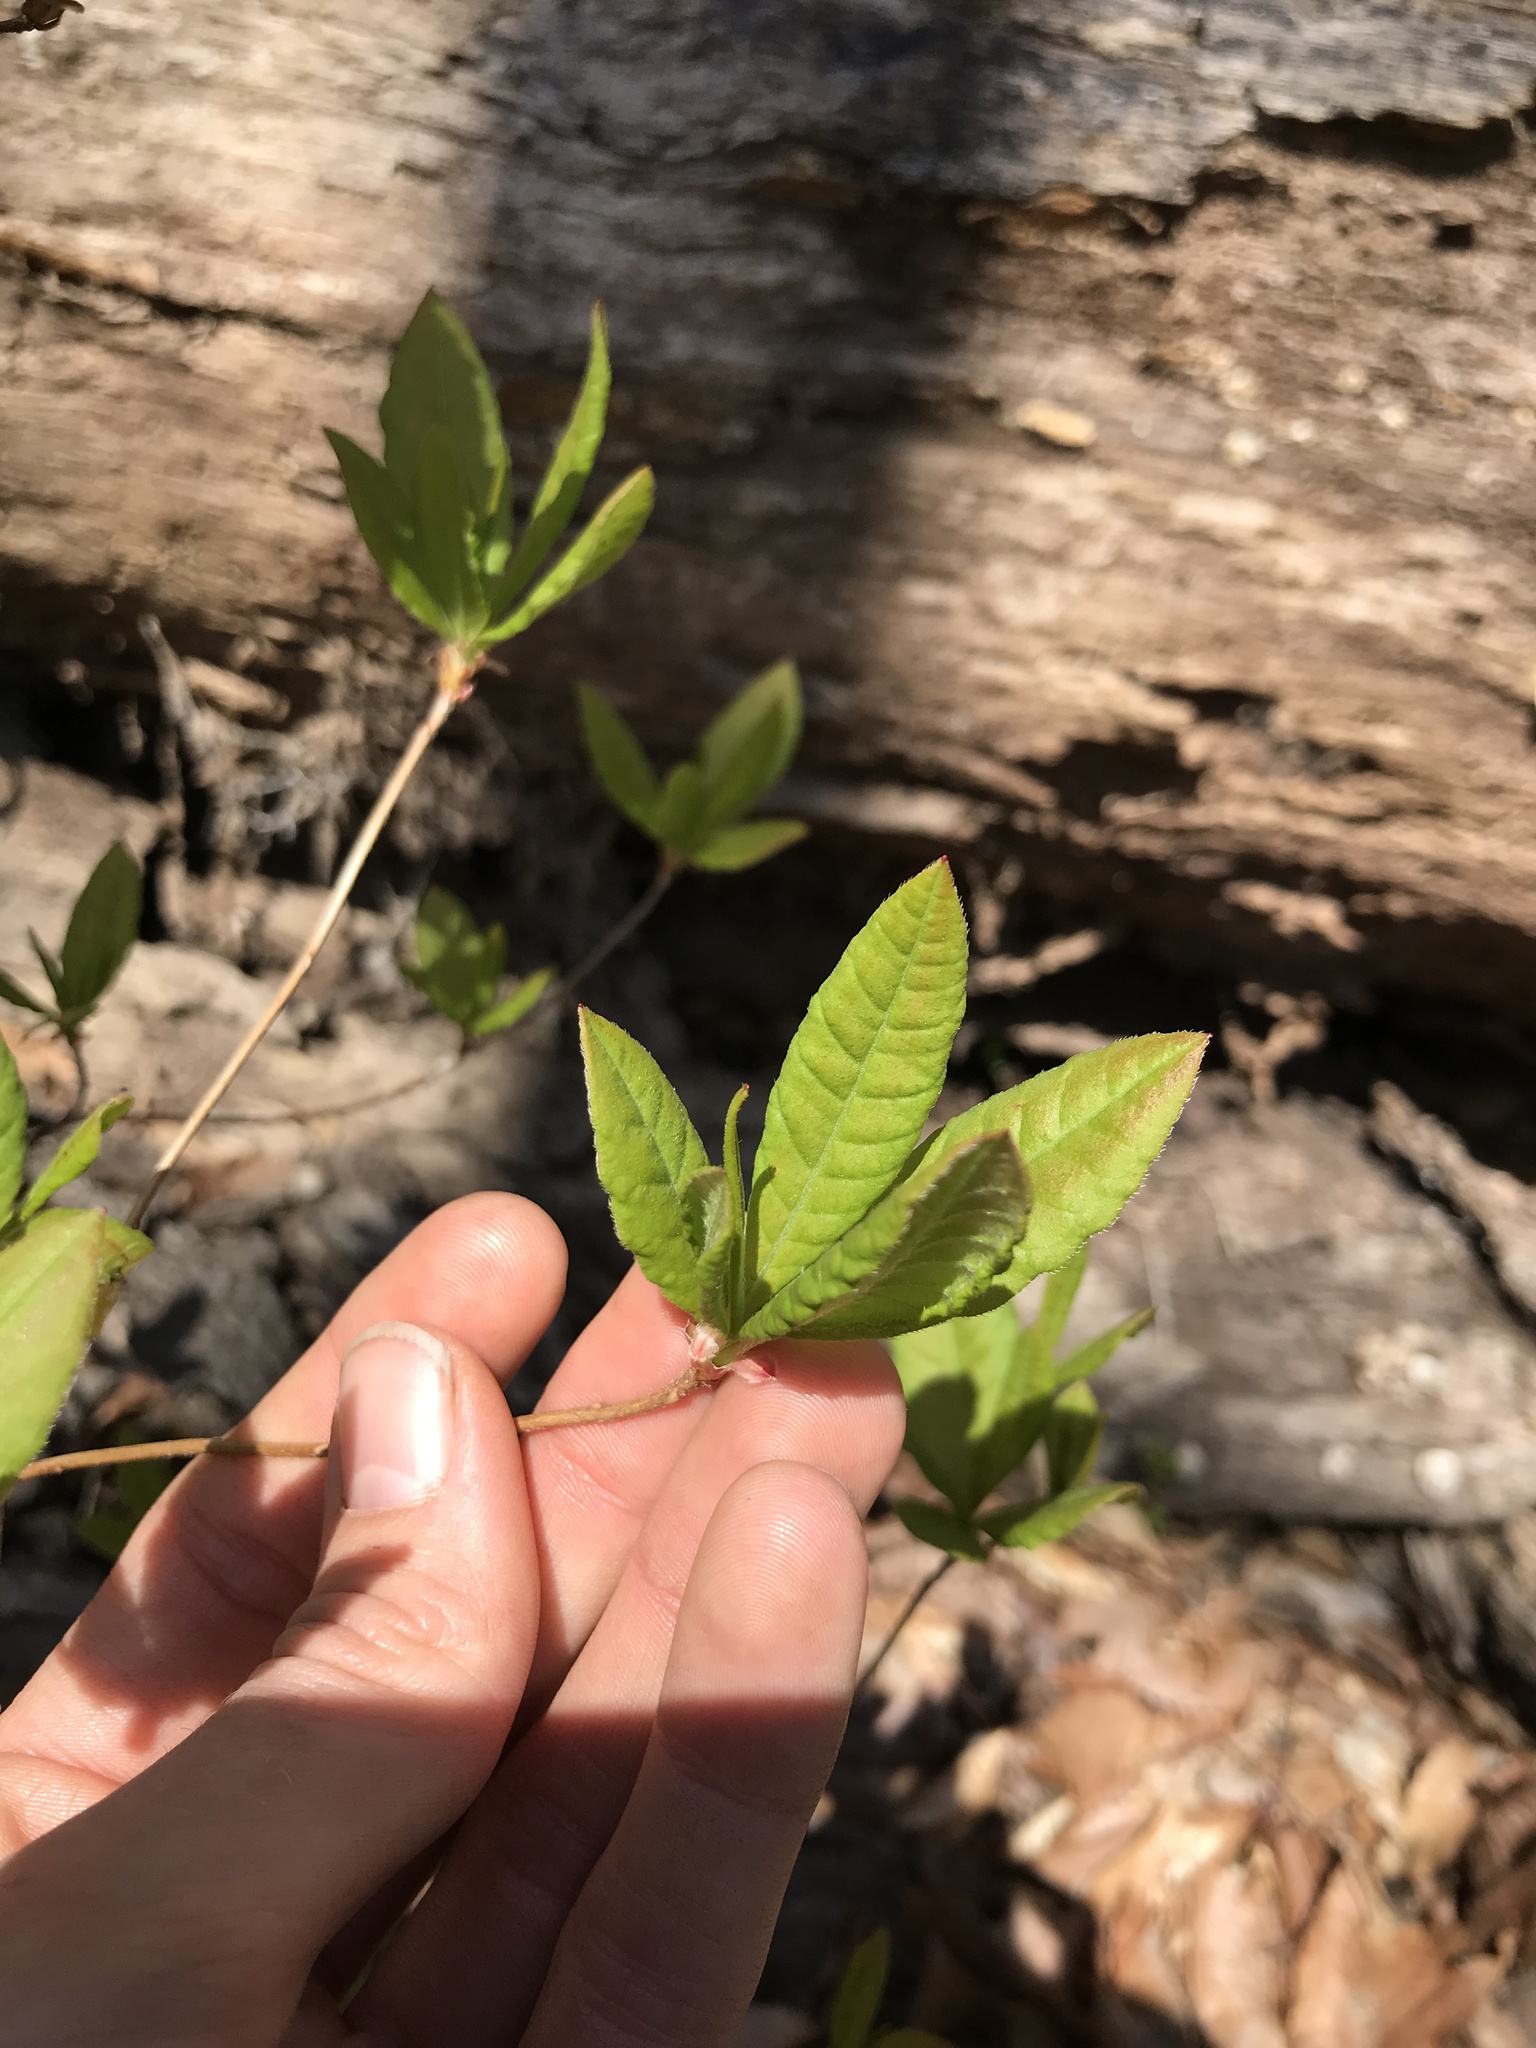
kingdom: Plantae
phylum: Tracheophyta
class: Magnoliopsida
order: Ericales
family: Ericaceae
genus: Rhododendron
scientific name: Rhododendron periclymenoides
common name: Election-pink
